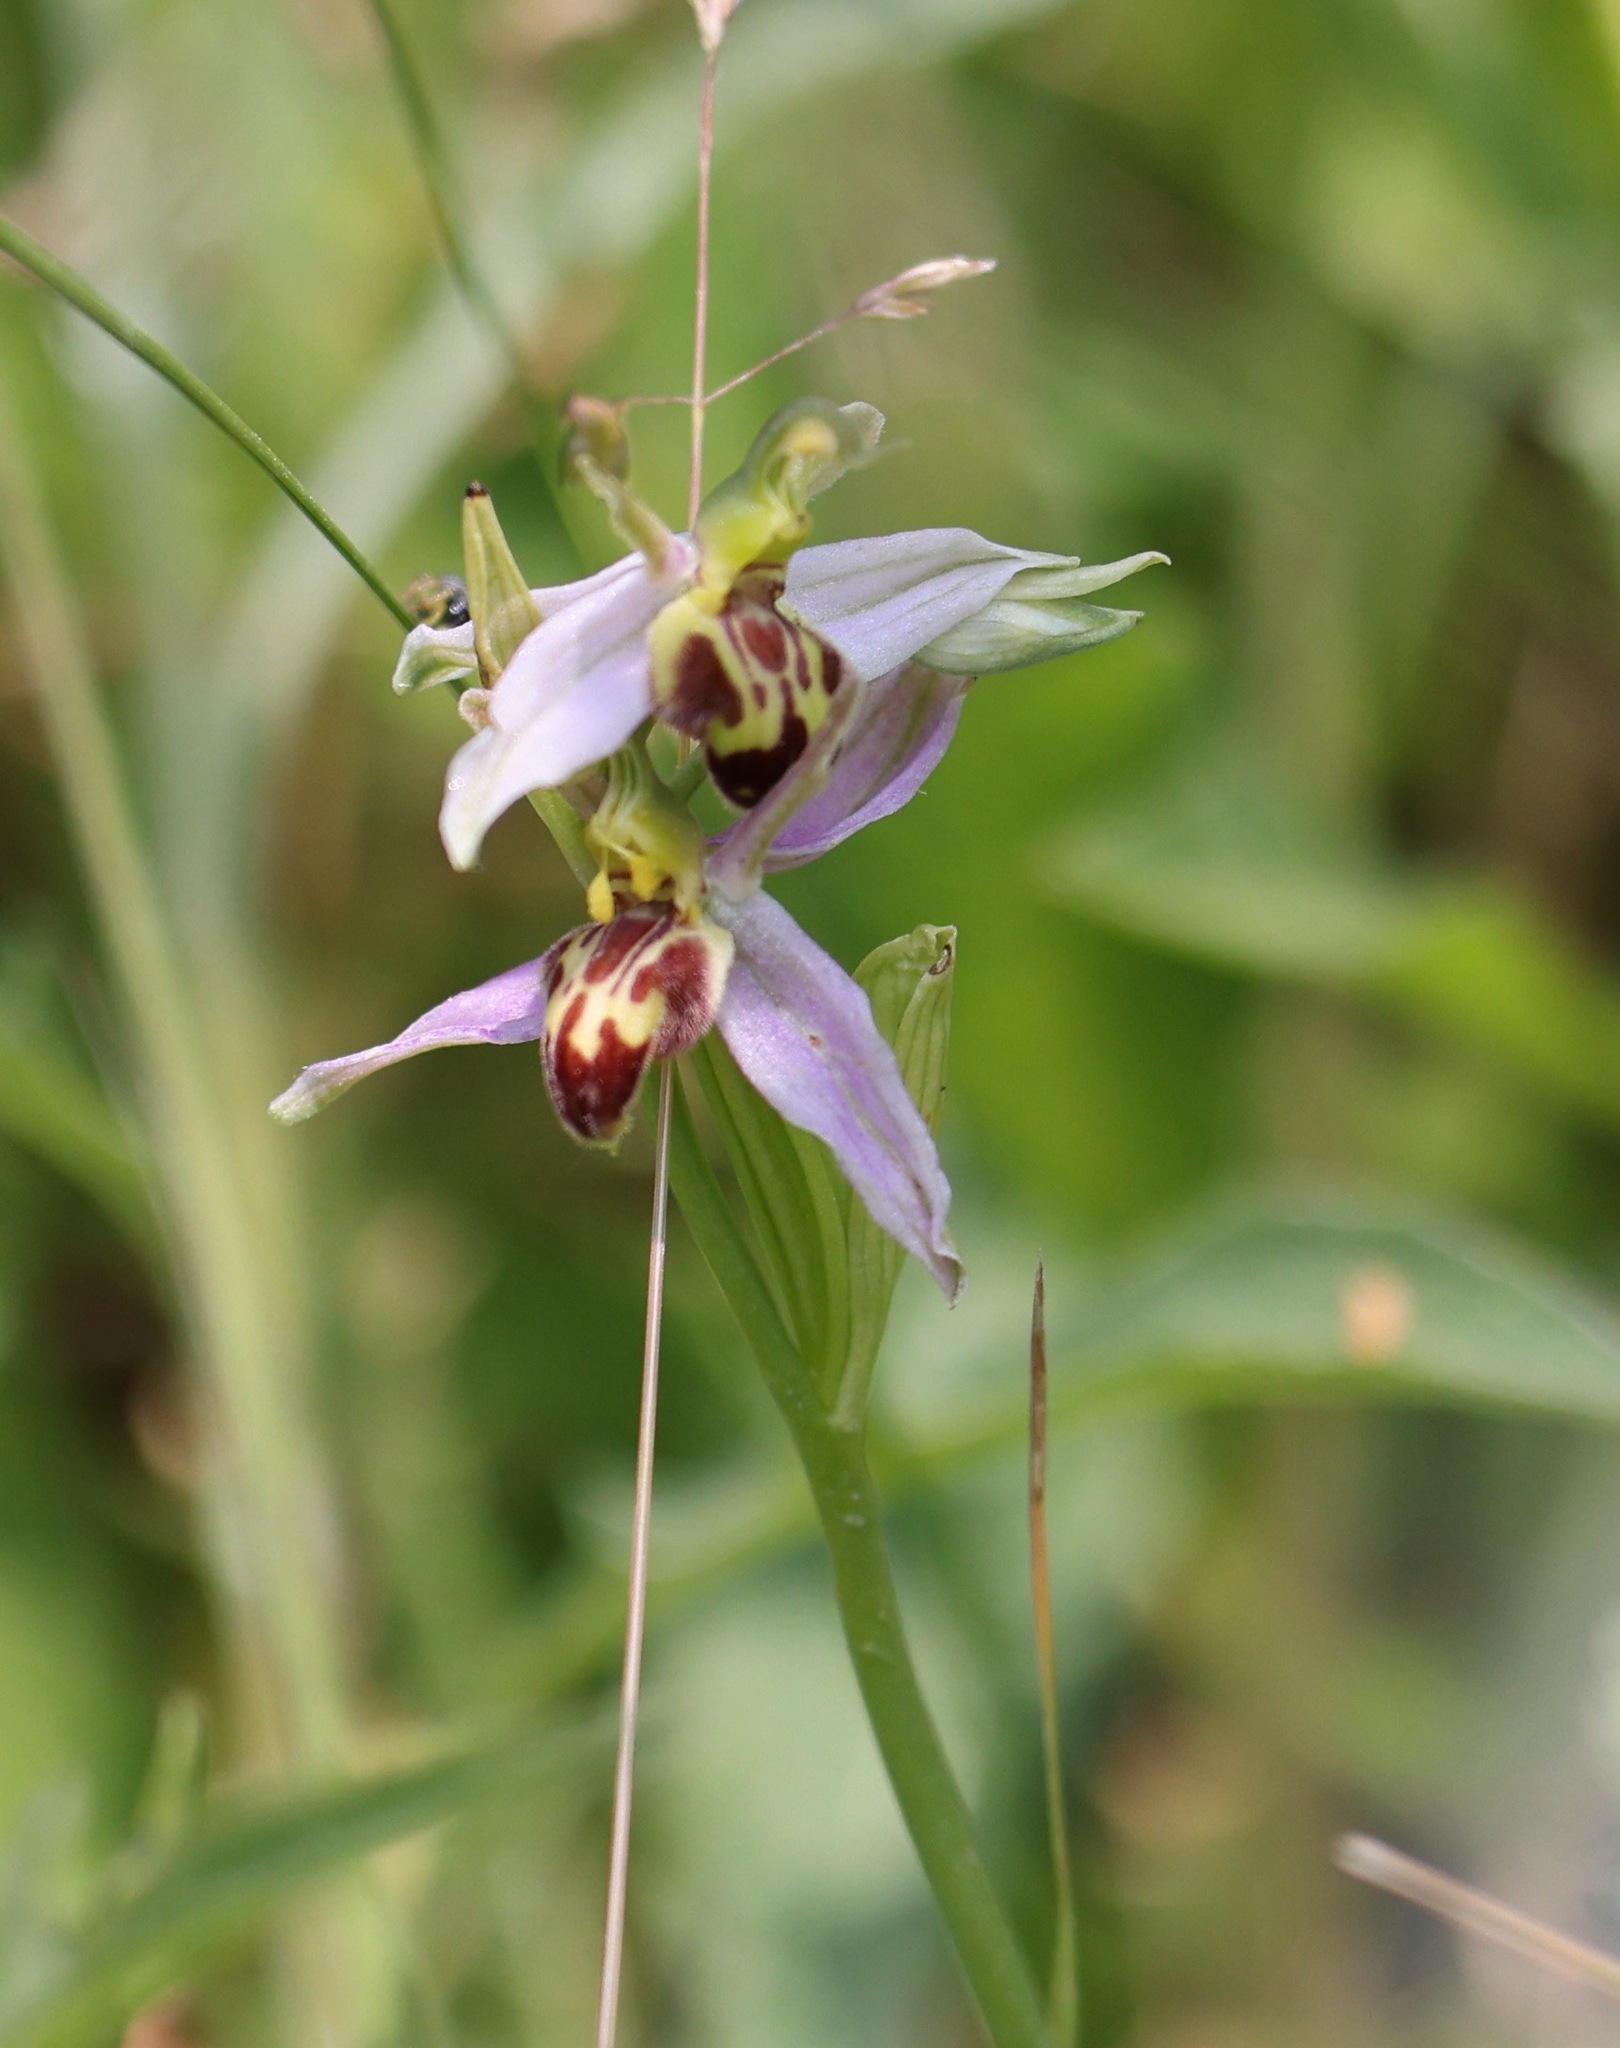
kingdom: Plantae
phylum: Tracheophyta
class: Liliopsida
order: Asparagales
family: Orchidaceae
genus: Ophrys
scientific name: Ophrys apifera
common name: Bee orchid
